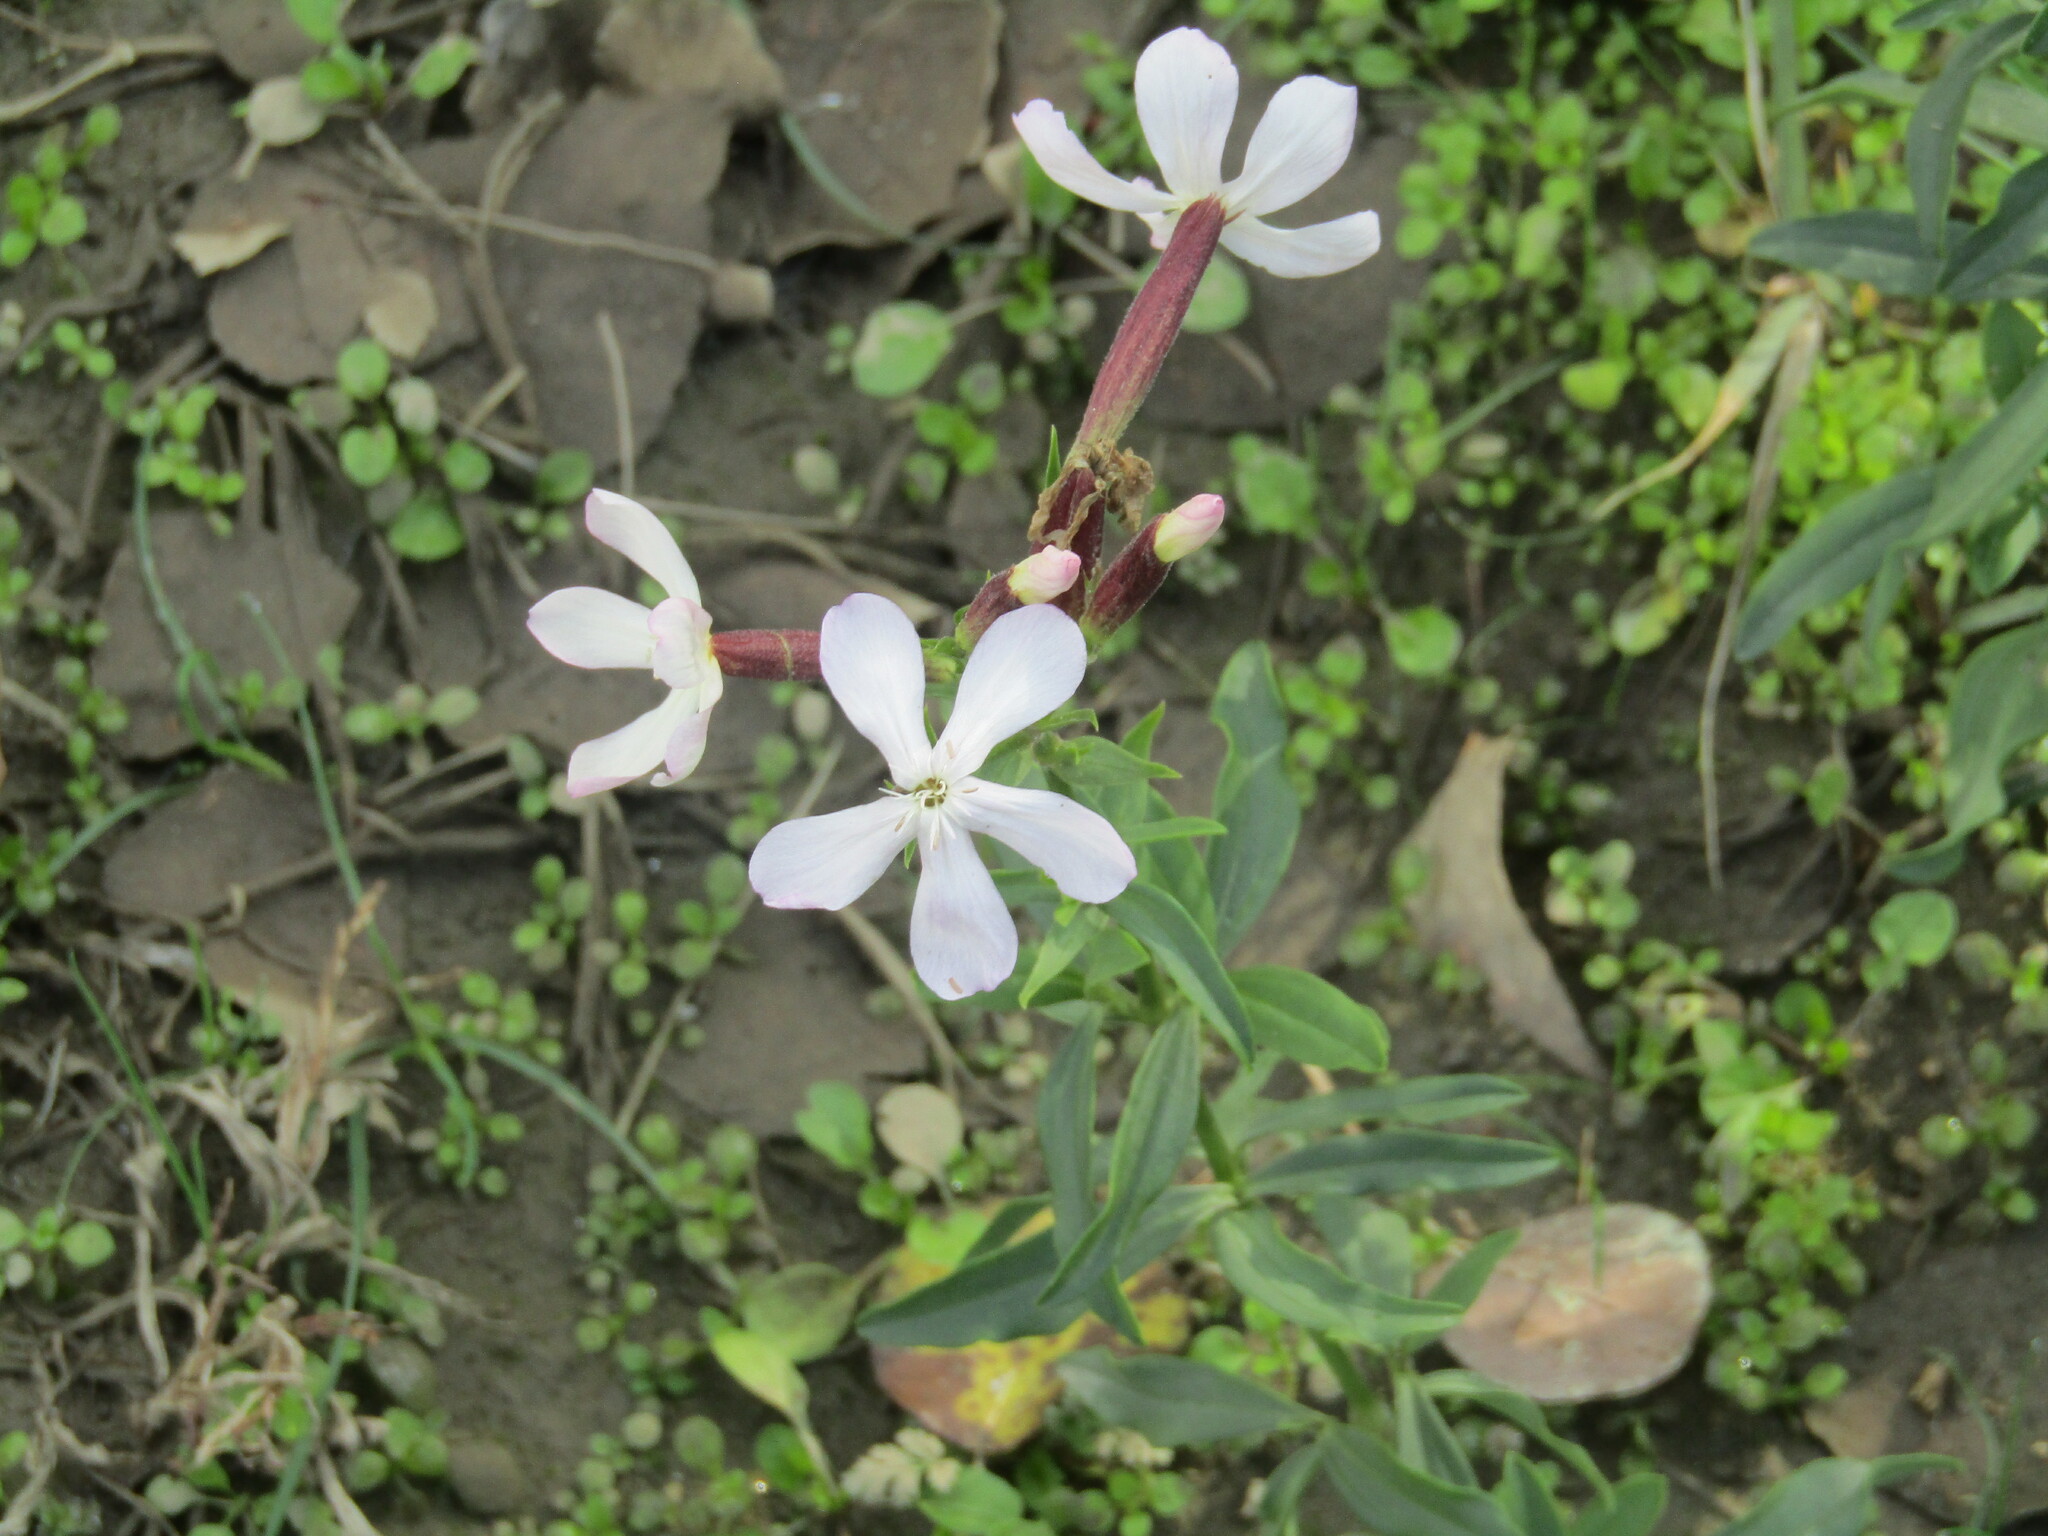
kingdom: Plantae
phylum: Tracheophyta
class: Magnoliopsida
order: Caryophyllales
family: Caryophyllaceae
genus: Saponaria
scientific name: Saponaria officinalis
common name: Soapwort
